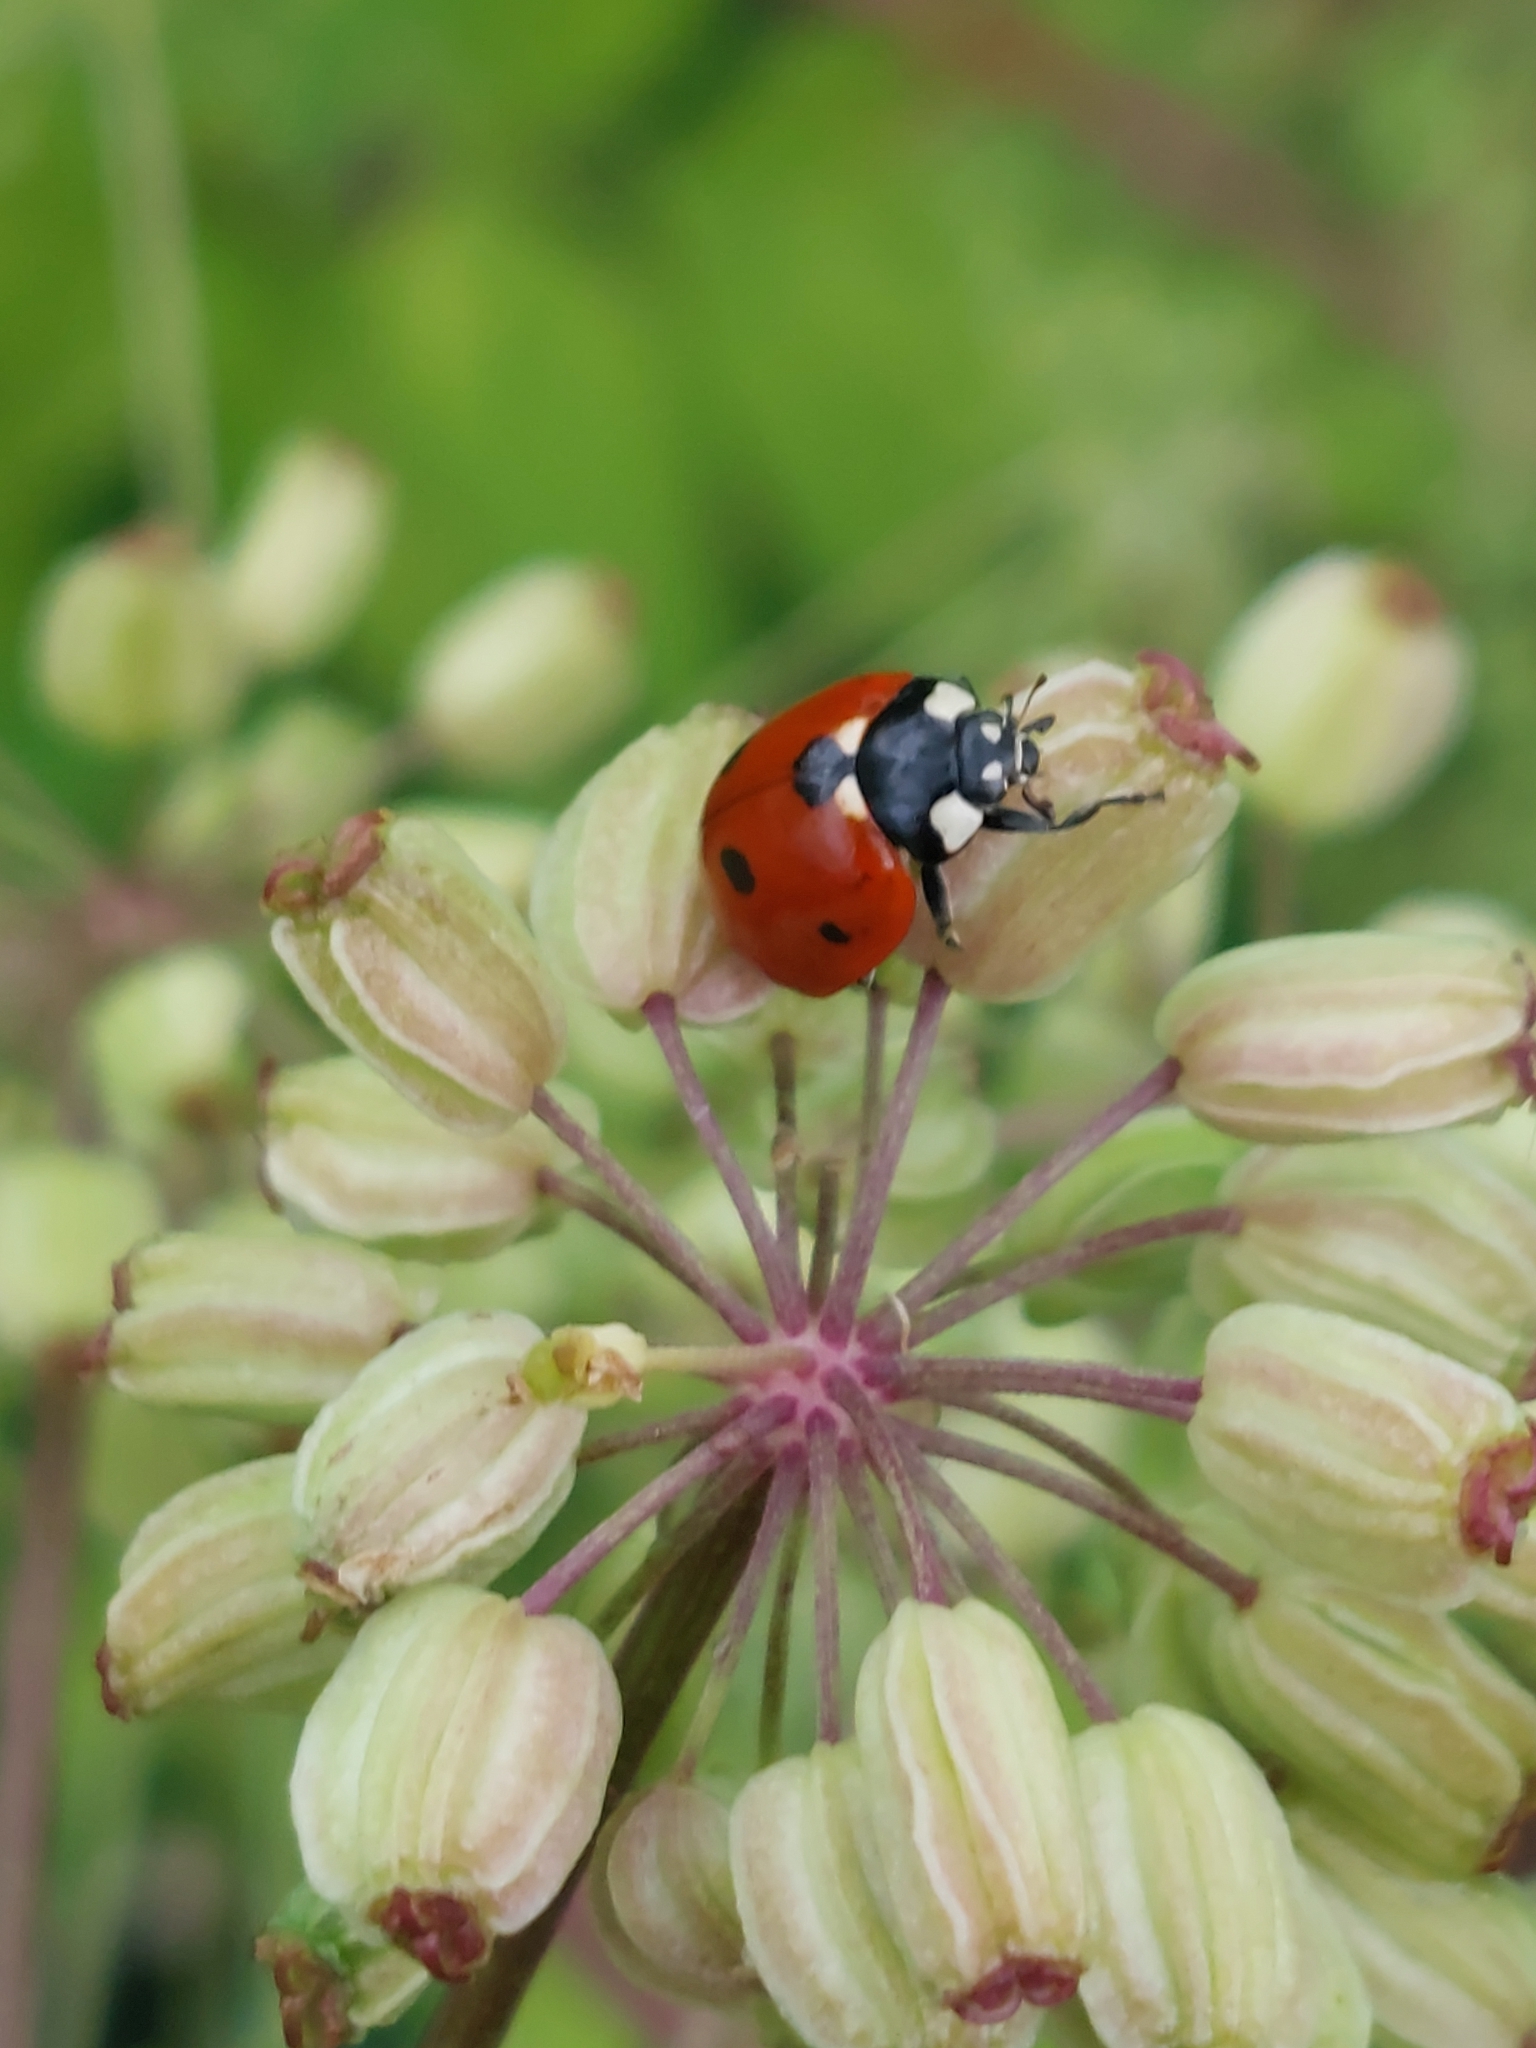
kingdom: Animalia
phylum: Arthropoda
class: Insecta
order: Coleoptera
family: Coccinellidae
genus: Coccinella
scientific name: Coccinella septempunctata
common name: Sevenspotted lady beetle
